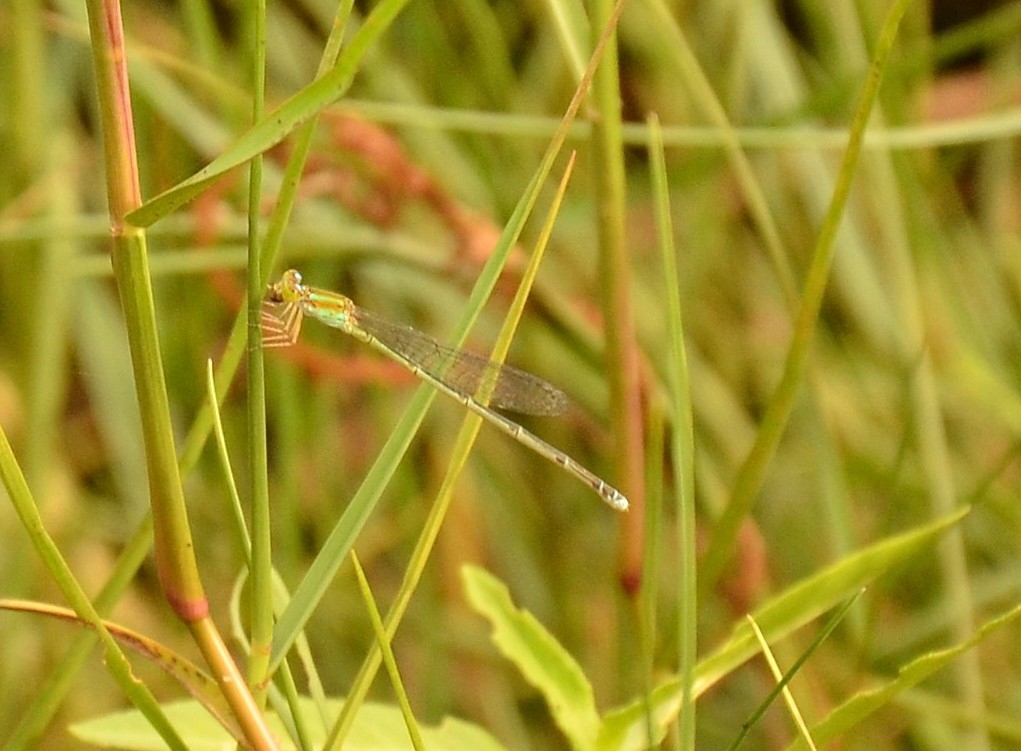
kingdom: Animalia
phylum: Arthropoda
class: Insecta
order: Odonata
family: Coenagrionidae
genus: Pseudagrion
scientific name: Pseudagrion microcephalum
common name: Blue riverdamsel
